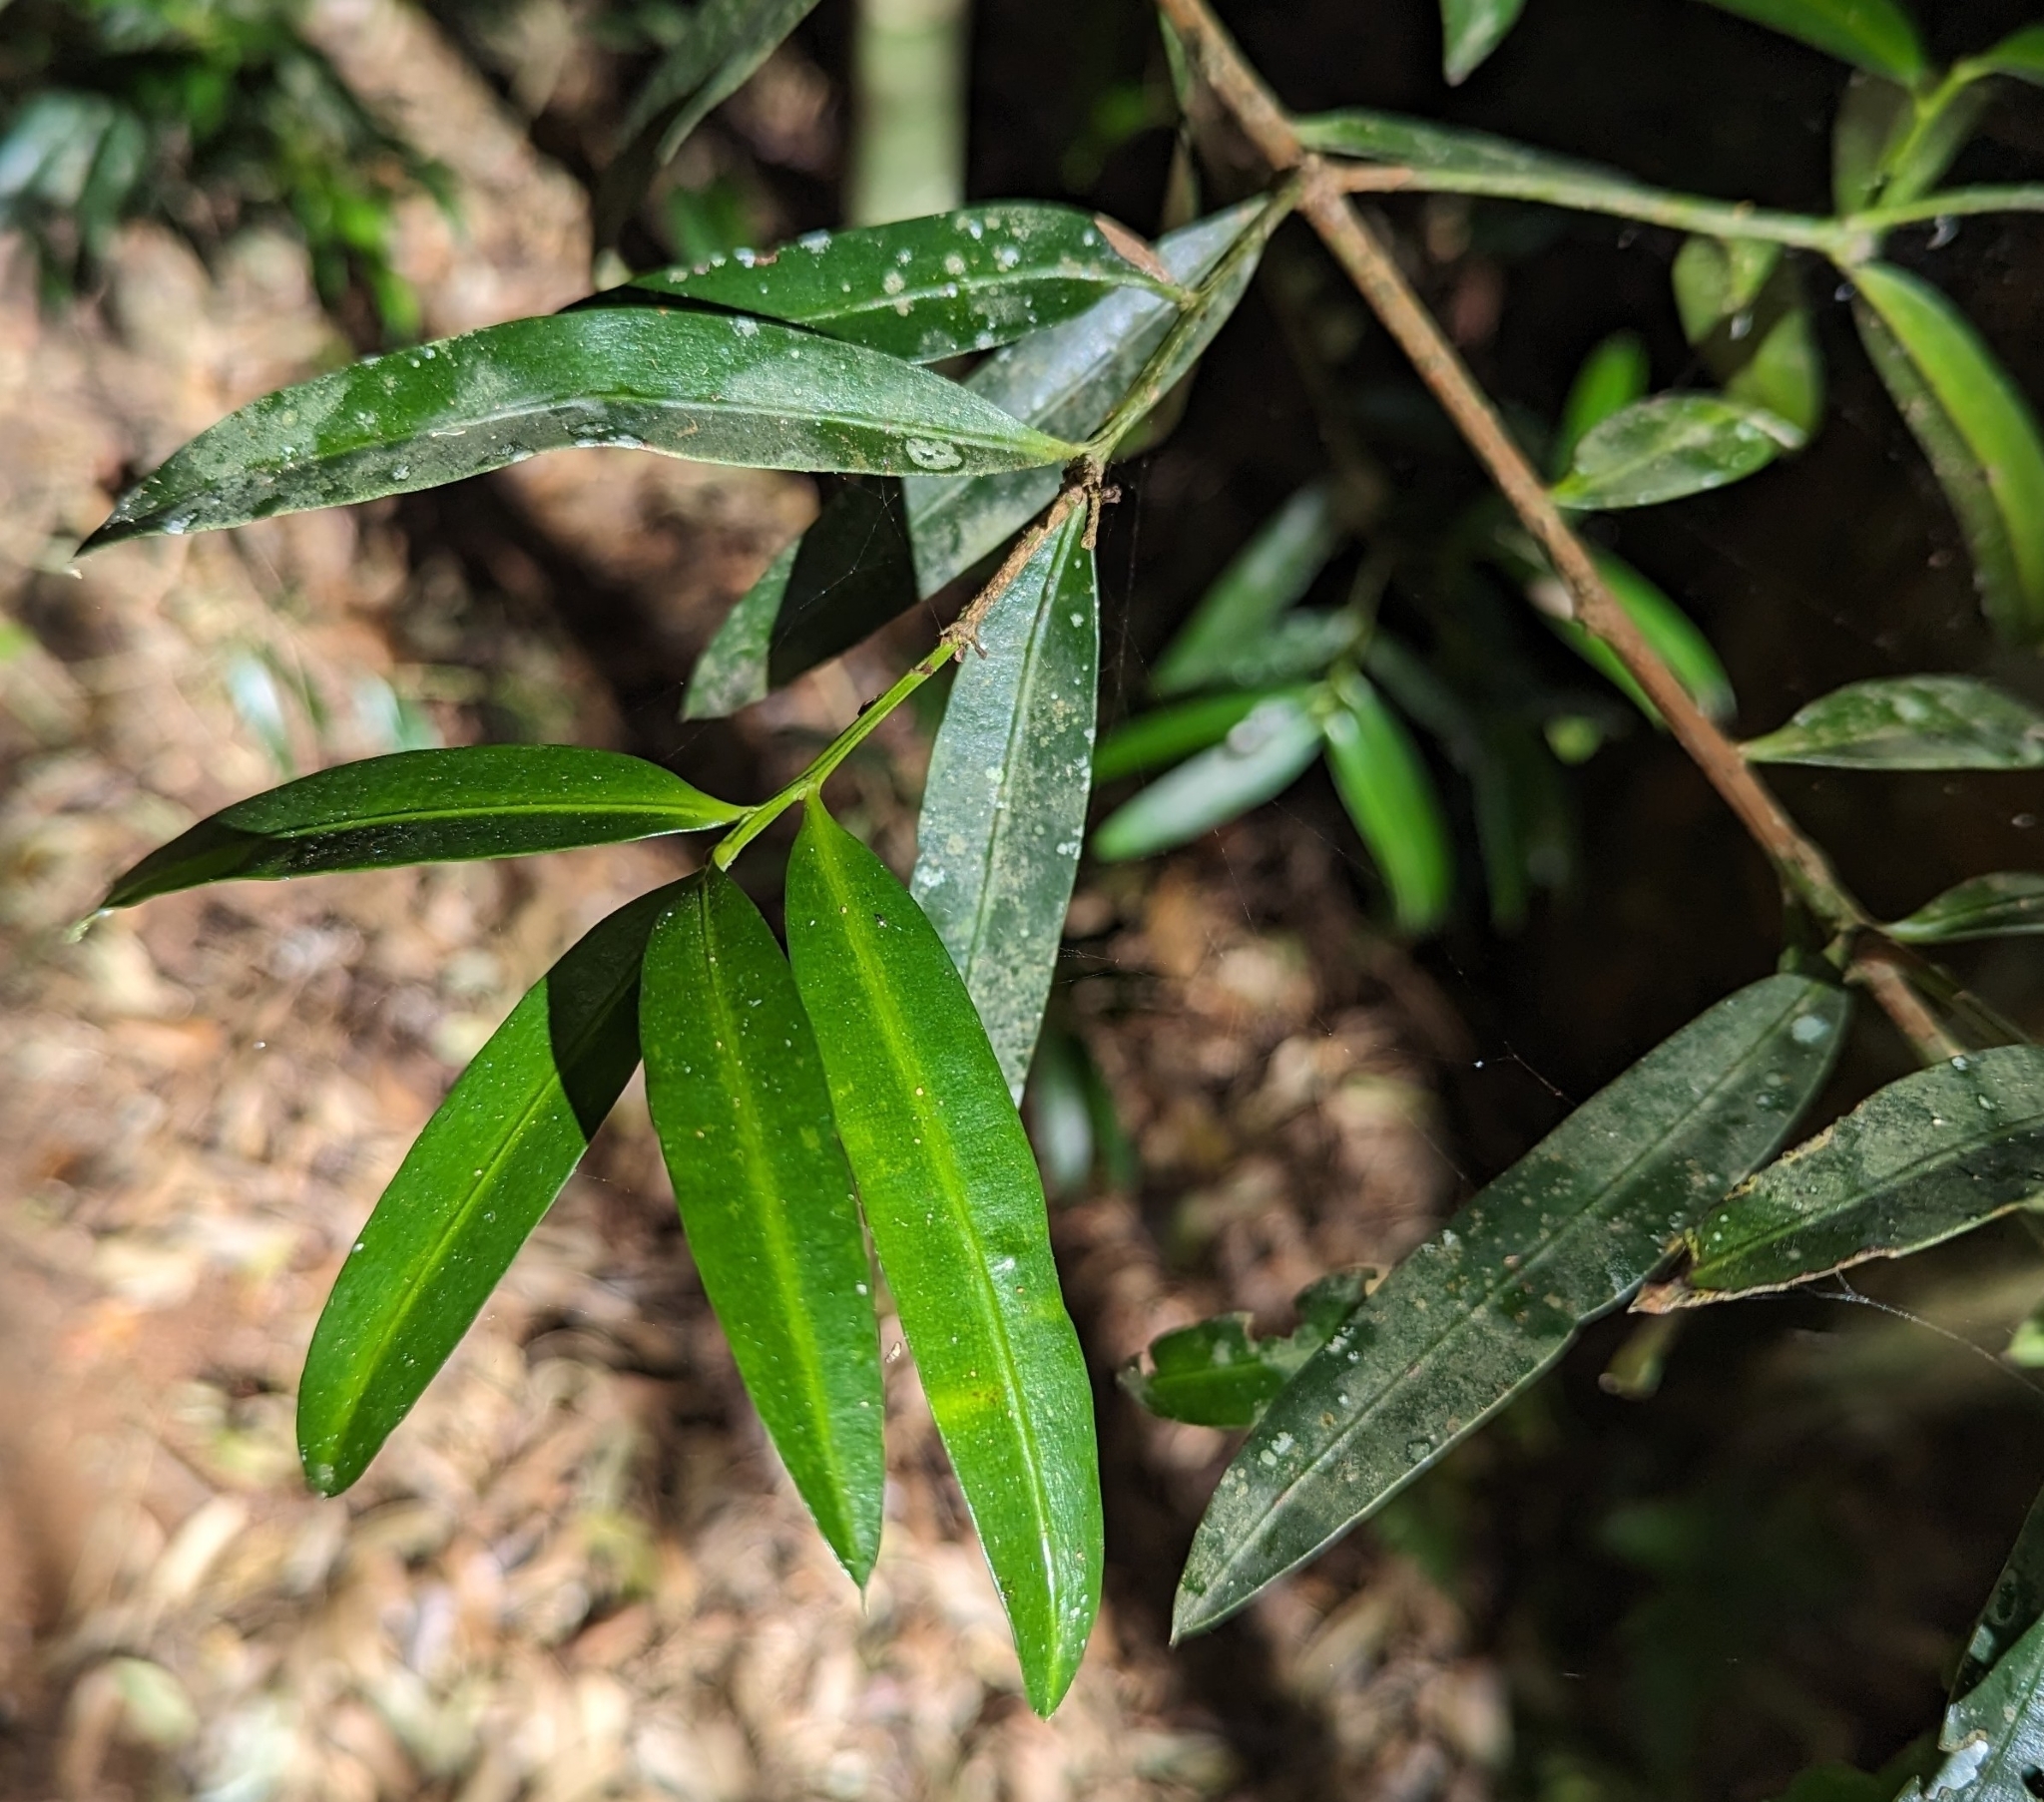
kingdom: Plantae
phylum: Tracheophyta
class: Pinopsida
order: Pinales
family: Podocarpaceae
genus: Podocarpus
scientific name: Podocarpus elatus
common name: Plum pine
